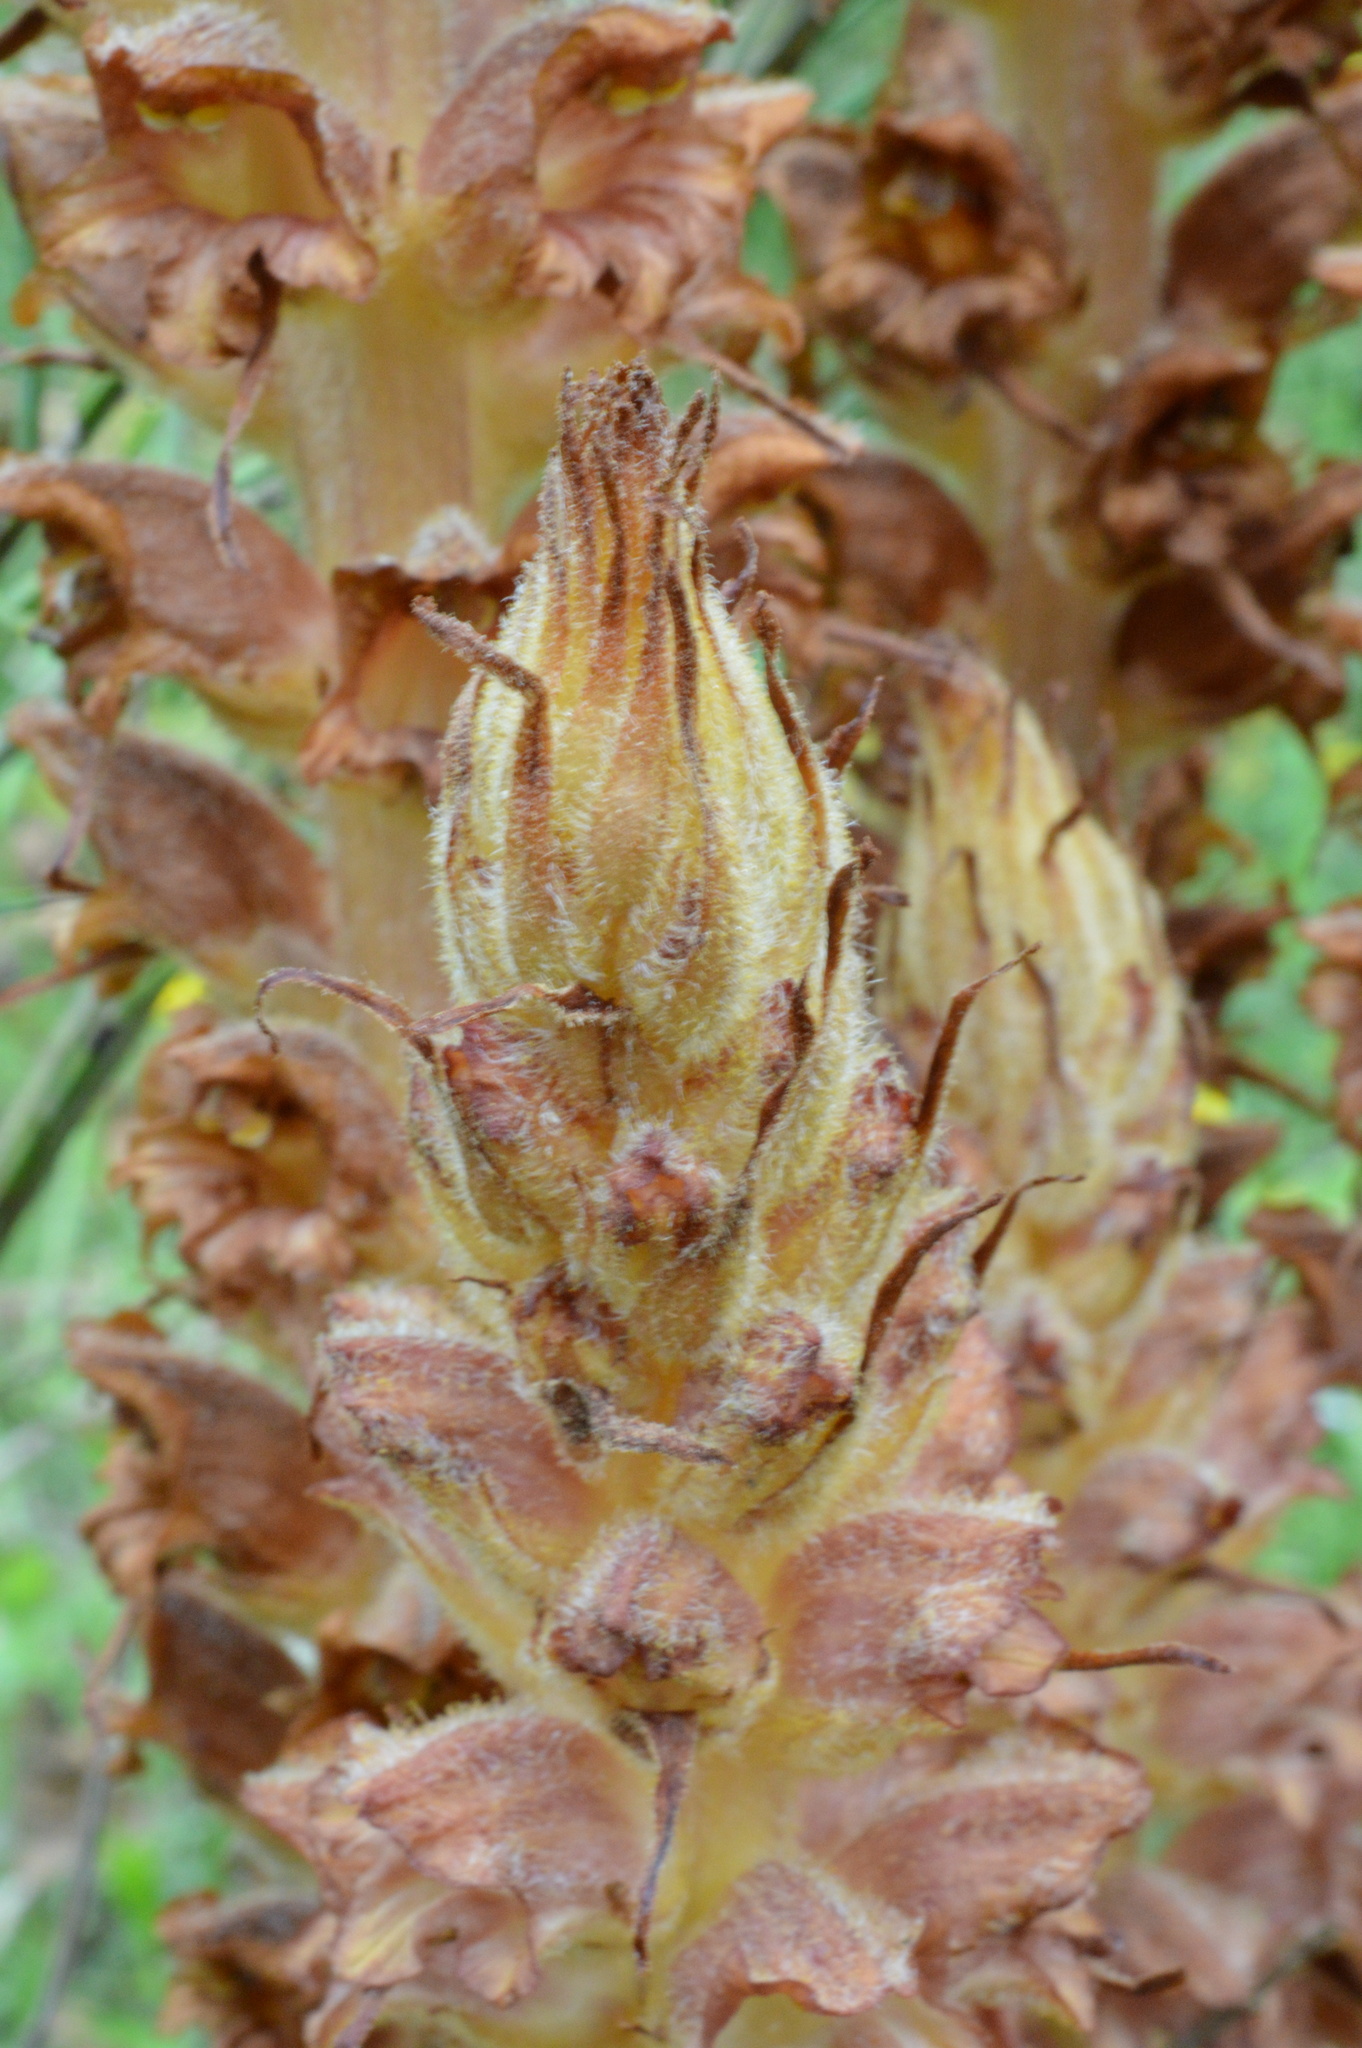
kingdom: Plantae
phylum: Tracheophyta
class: Magnoliopsida
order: Lamiales
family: Orobanchaceae
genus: Orobanche
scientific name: Orobanche rapum-genistae
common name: Greater broomrape
